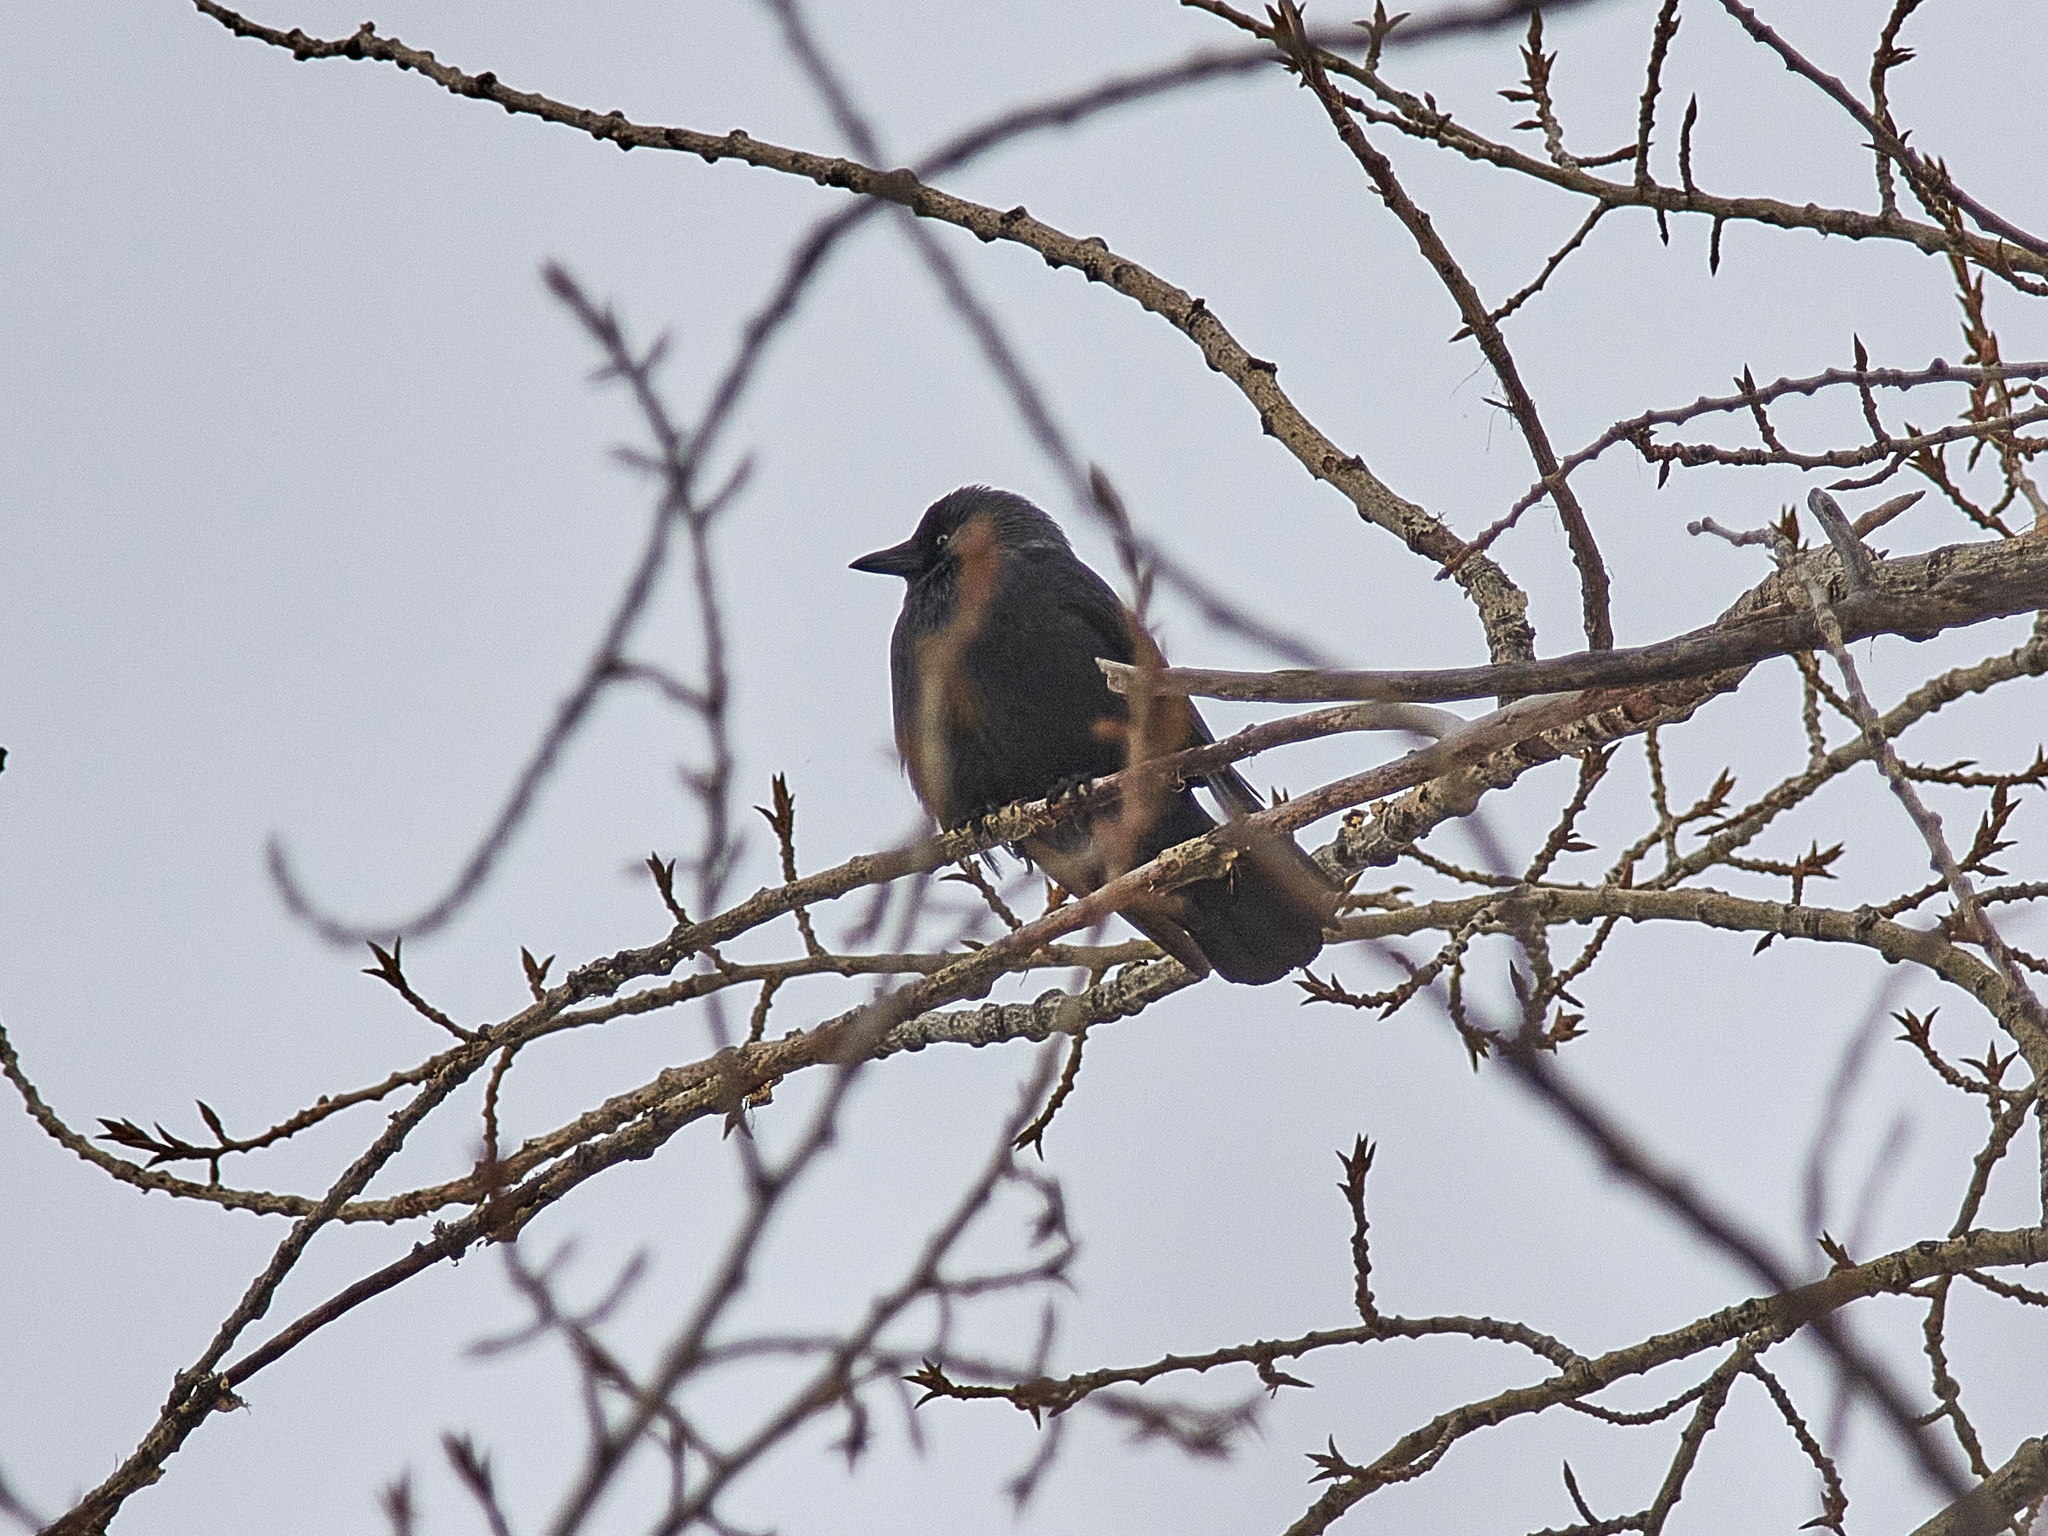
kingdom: Animalia
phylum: Chordata
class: Aves
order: Passeriformes
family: Corvidae
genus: Coloeus
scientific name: Coloeus monedula
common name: Western jackdaw
